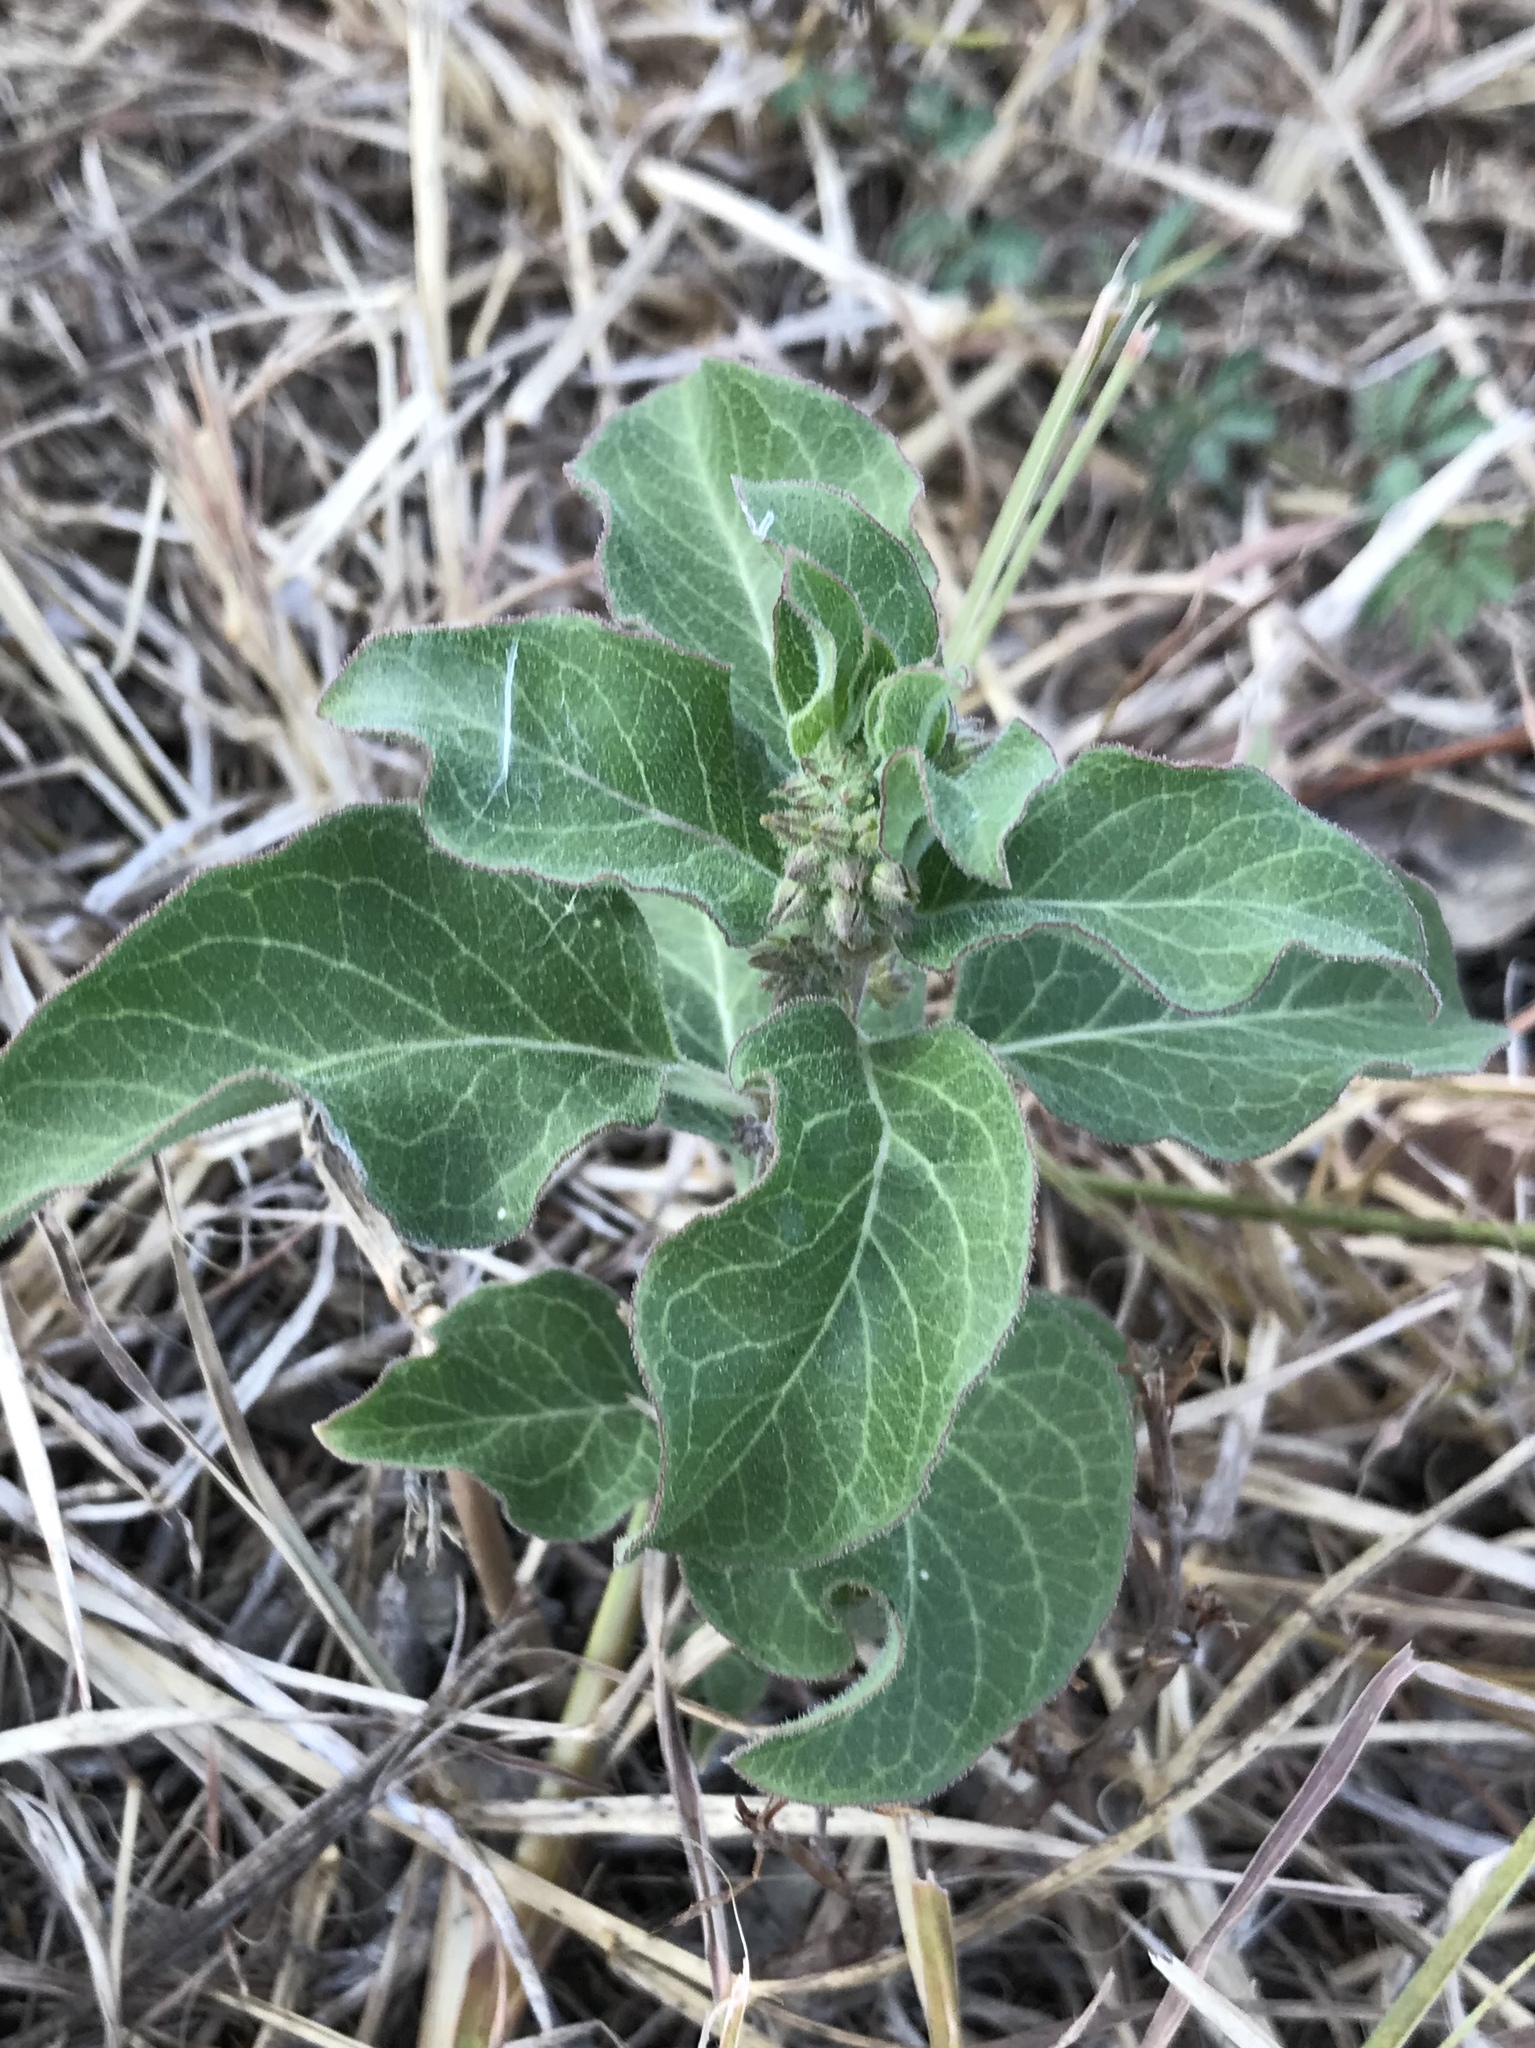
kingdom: Plantae
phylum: Tracheophyta
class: Magnoliopsida
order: Gentianales
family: Apocynaceae
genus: Asclepias
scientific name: Asclepias oenotheroides
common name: Zizotes milkweed
